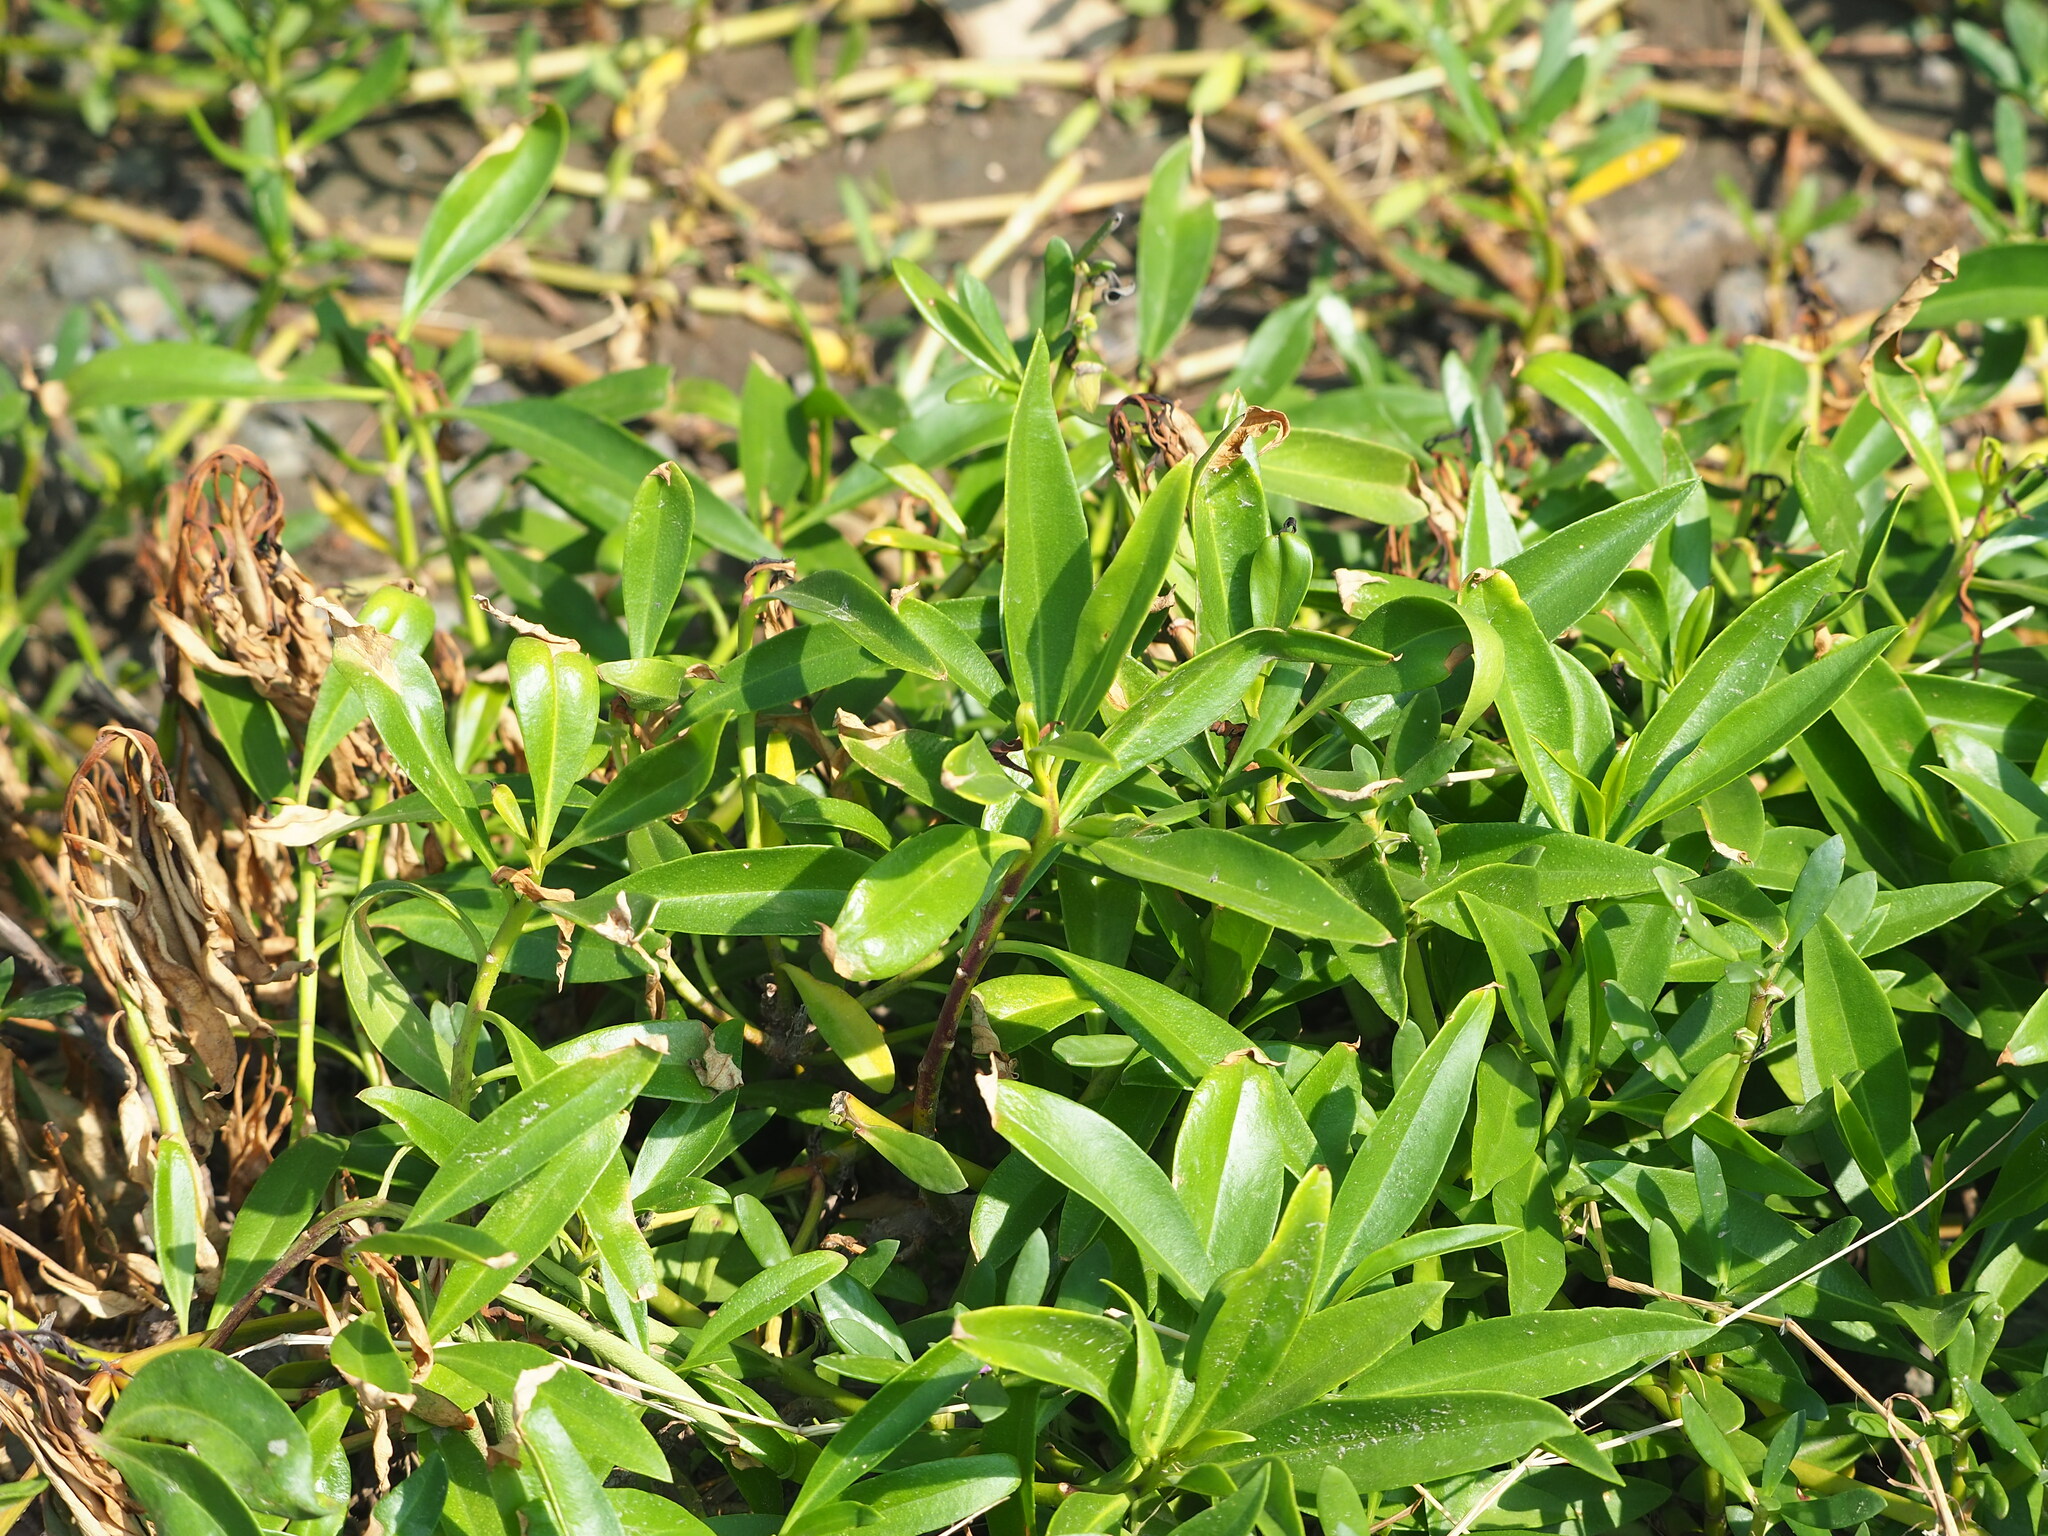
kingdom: Plantae
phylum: Tracheophyta
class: Magnoliopsida
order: Lamiales
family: Scrophulariaceae
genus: Myoporum
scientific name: Myoporum bontioides
